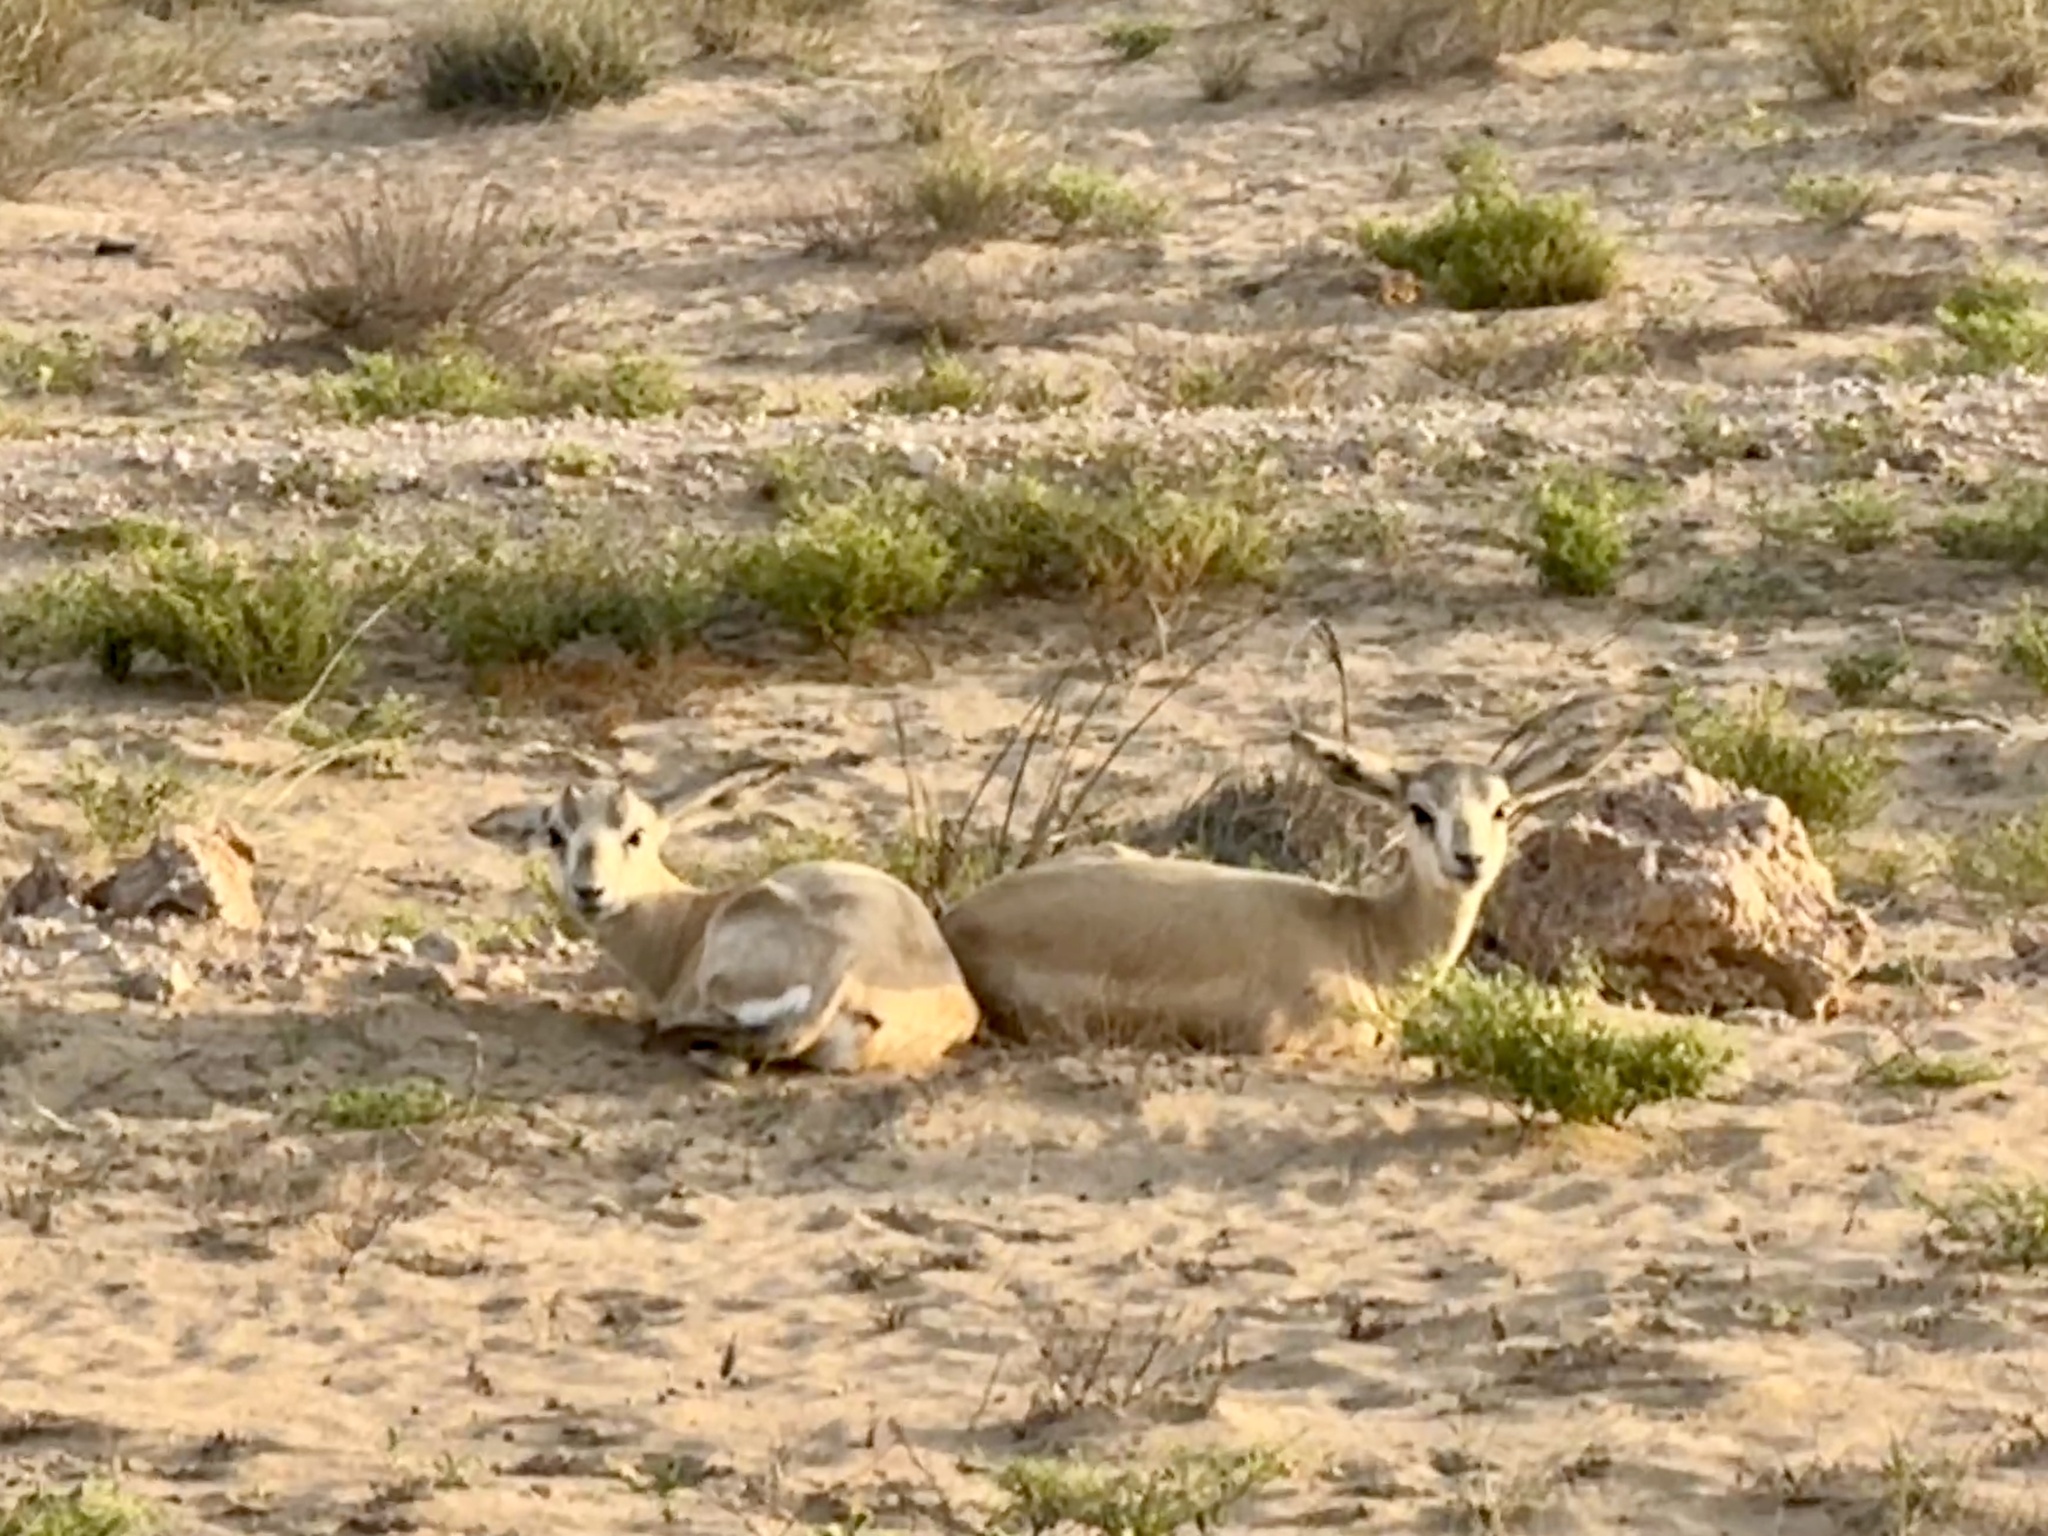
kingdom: Animalia
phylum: Chordata
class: Mammalia
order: Artiodactyla
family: Bovidae
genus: Gazella
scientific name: Gazella marica
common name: Arabian sand gazelle
